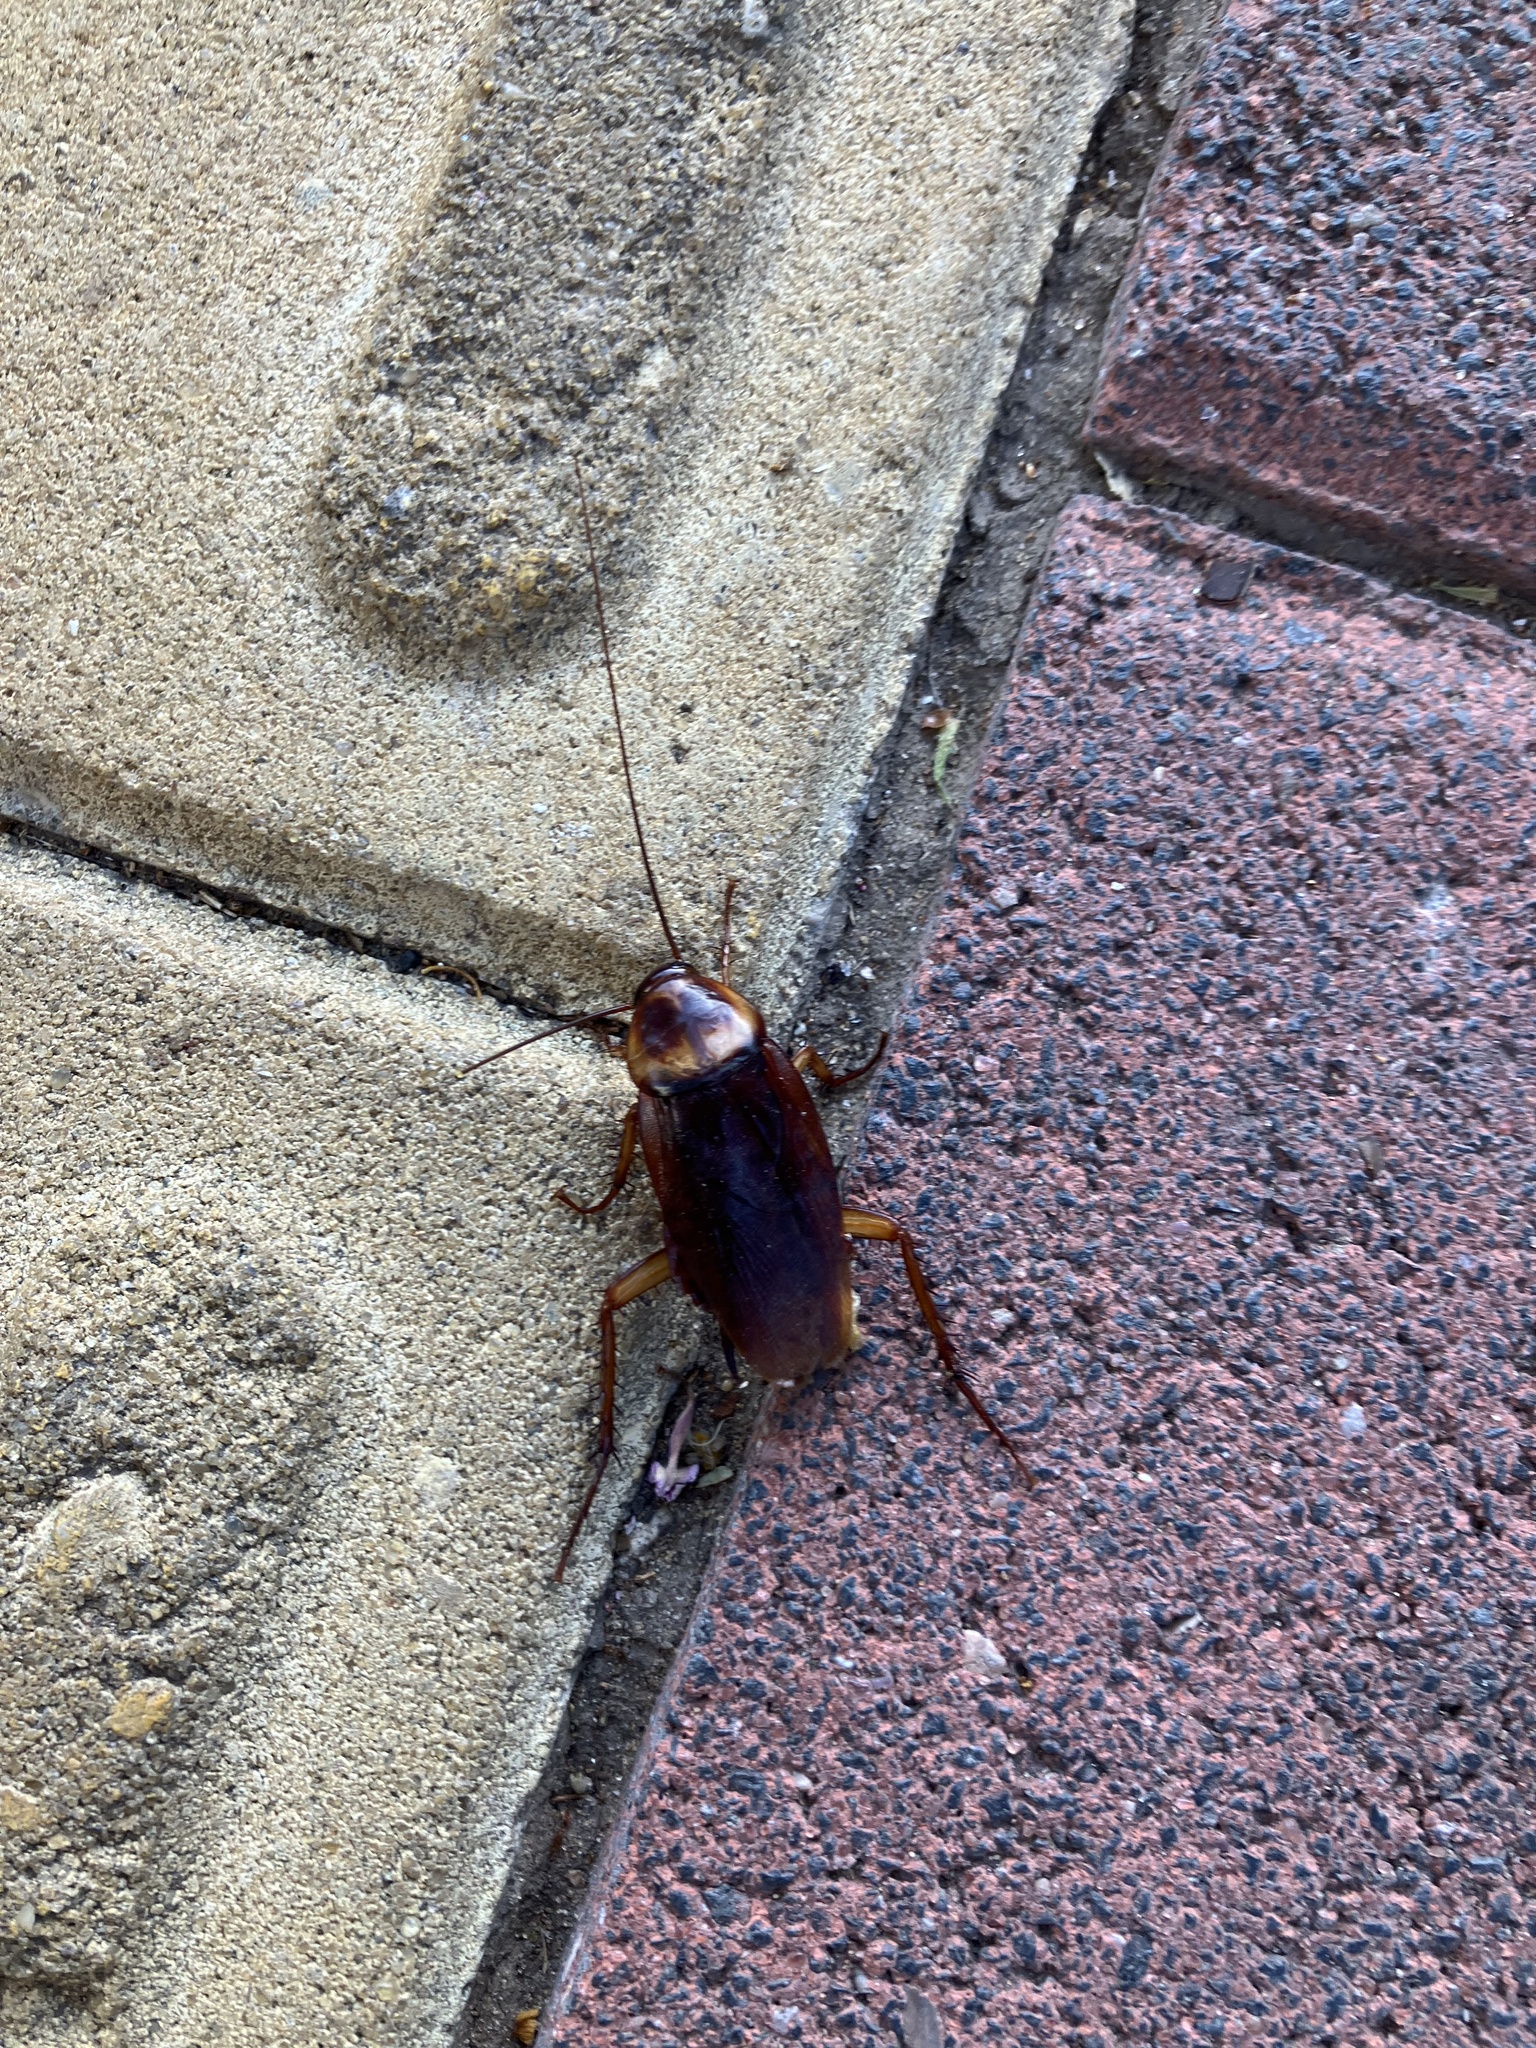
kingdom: Animalia
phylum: Arthropoda
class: Insecta
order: Blattodea
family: Blattidae
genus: Periplaneta
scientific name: Periplaneta americana
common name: American cockroach
